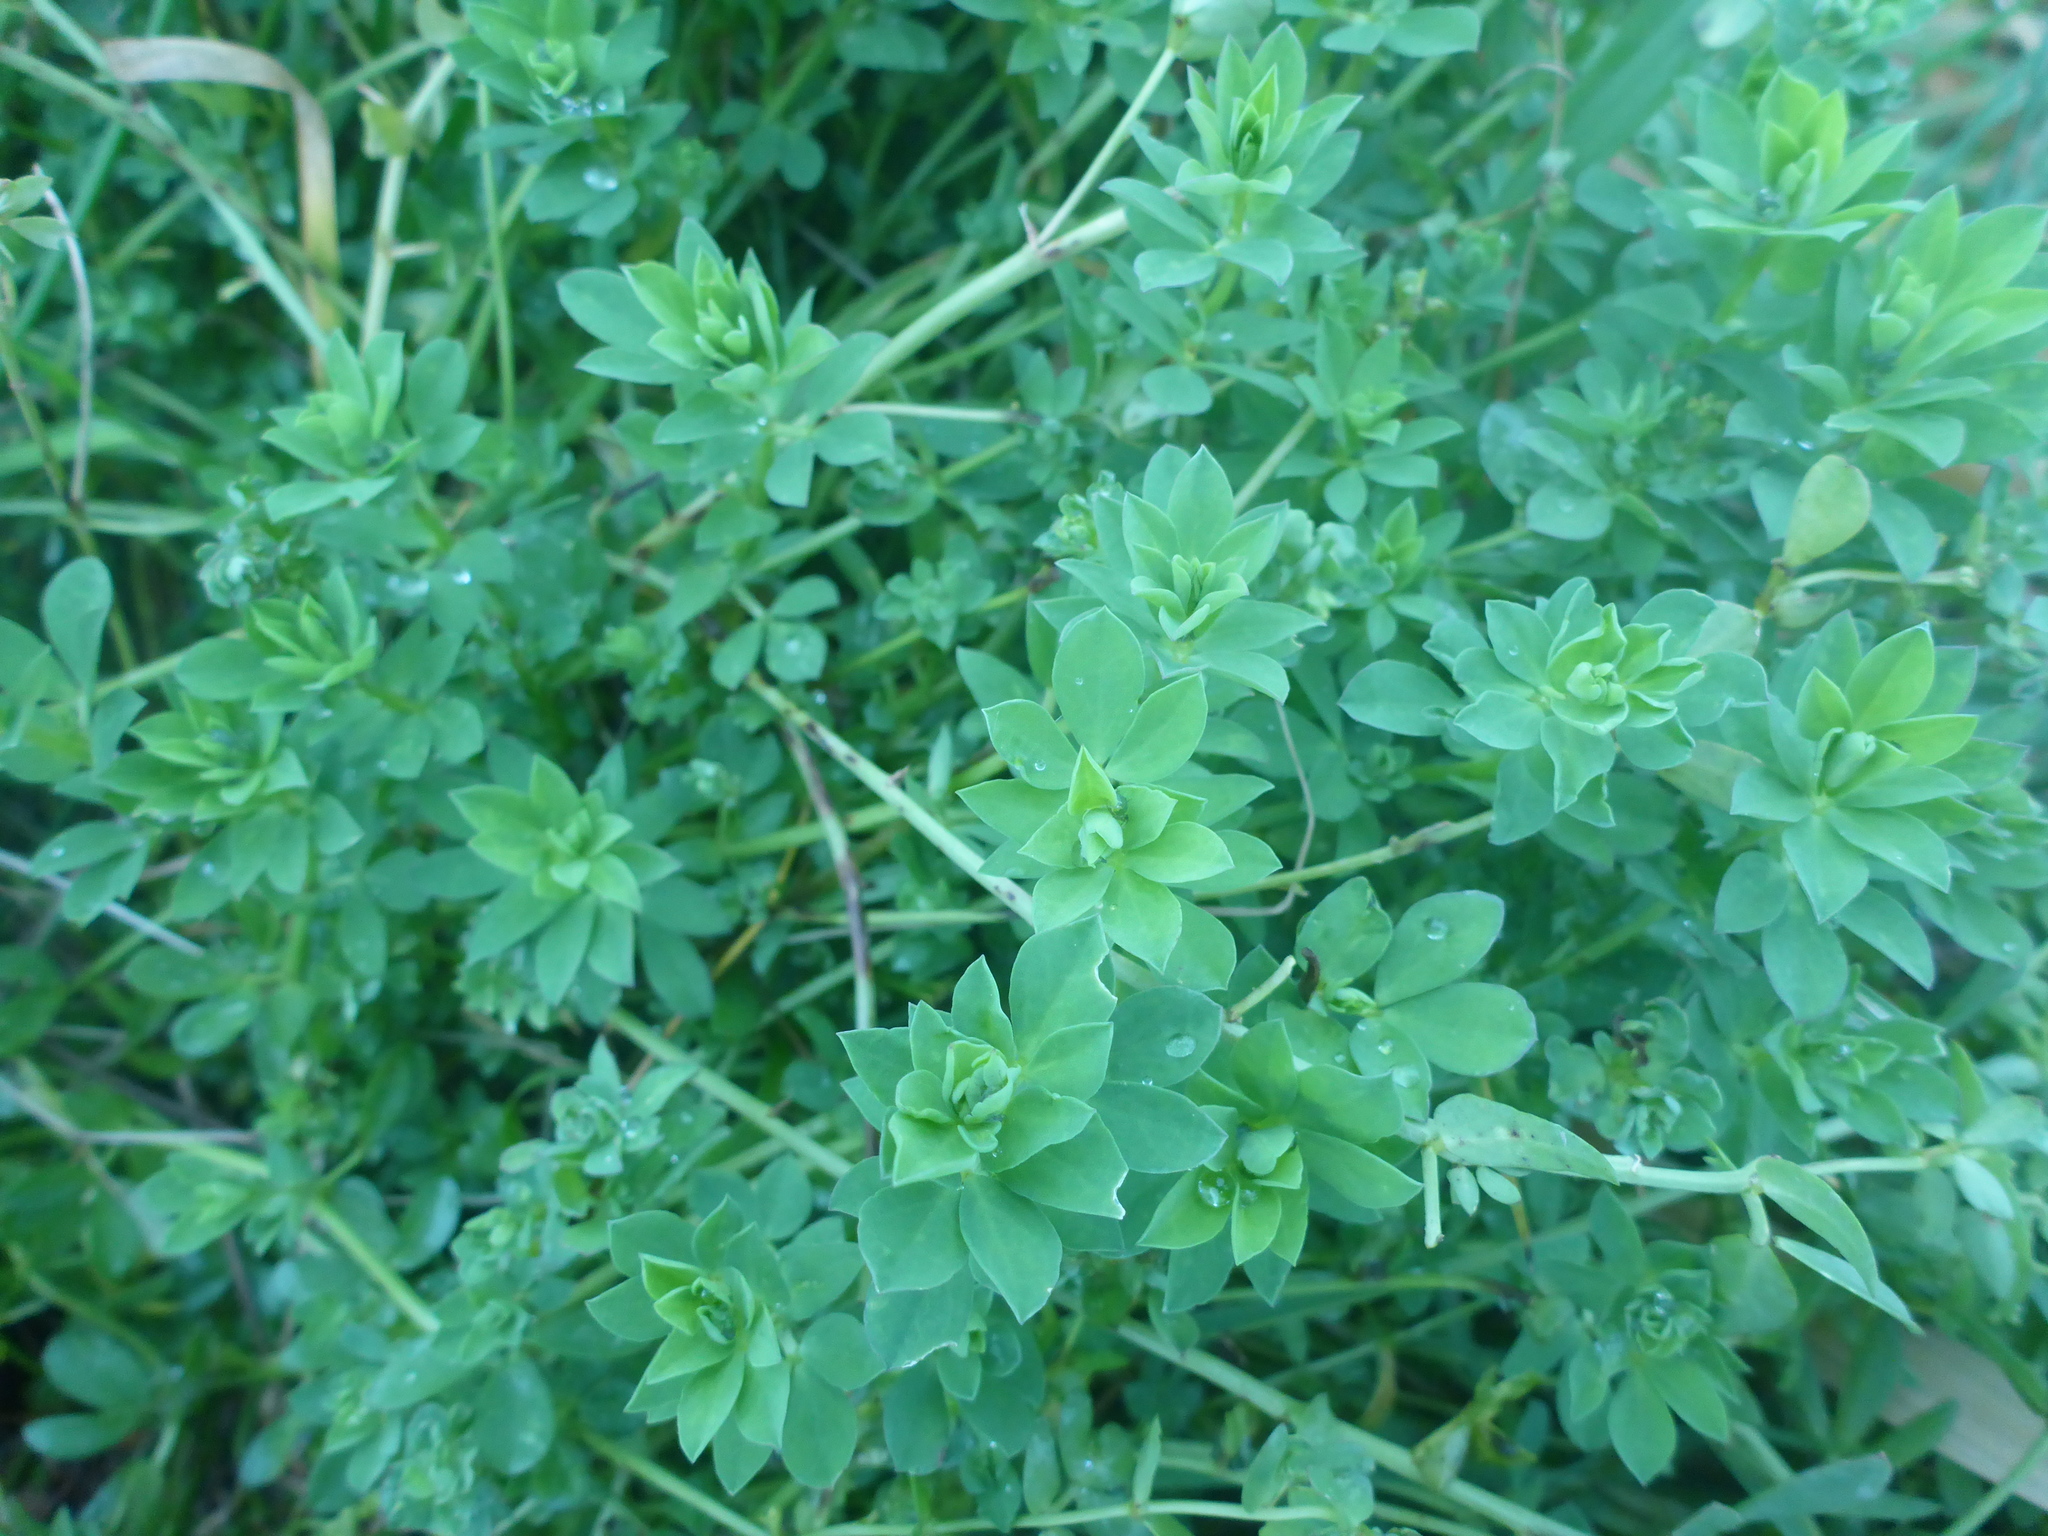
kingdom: Plantae
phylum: Tracheophyta
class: Magnoliopsida
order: Fabales
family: Fabaceae
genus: Lotus
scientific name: Lotus pedunculatus
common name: Greater birdsfoot-trefoil
